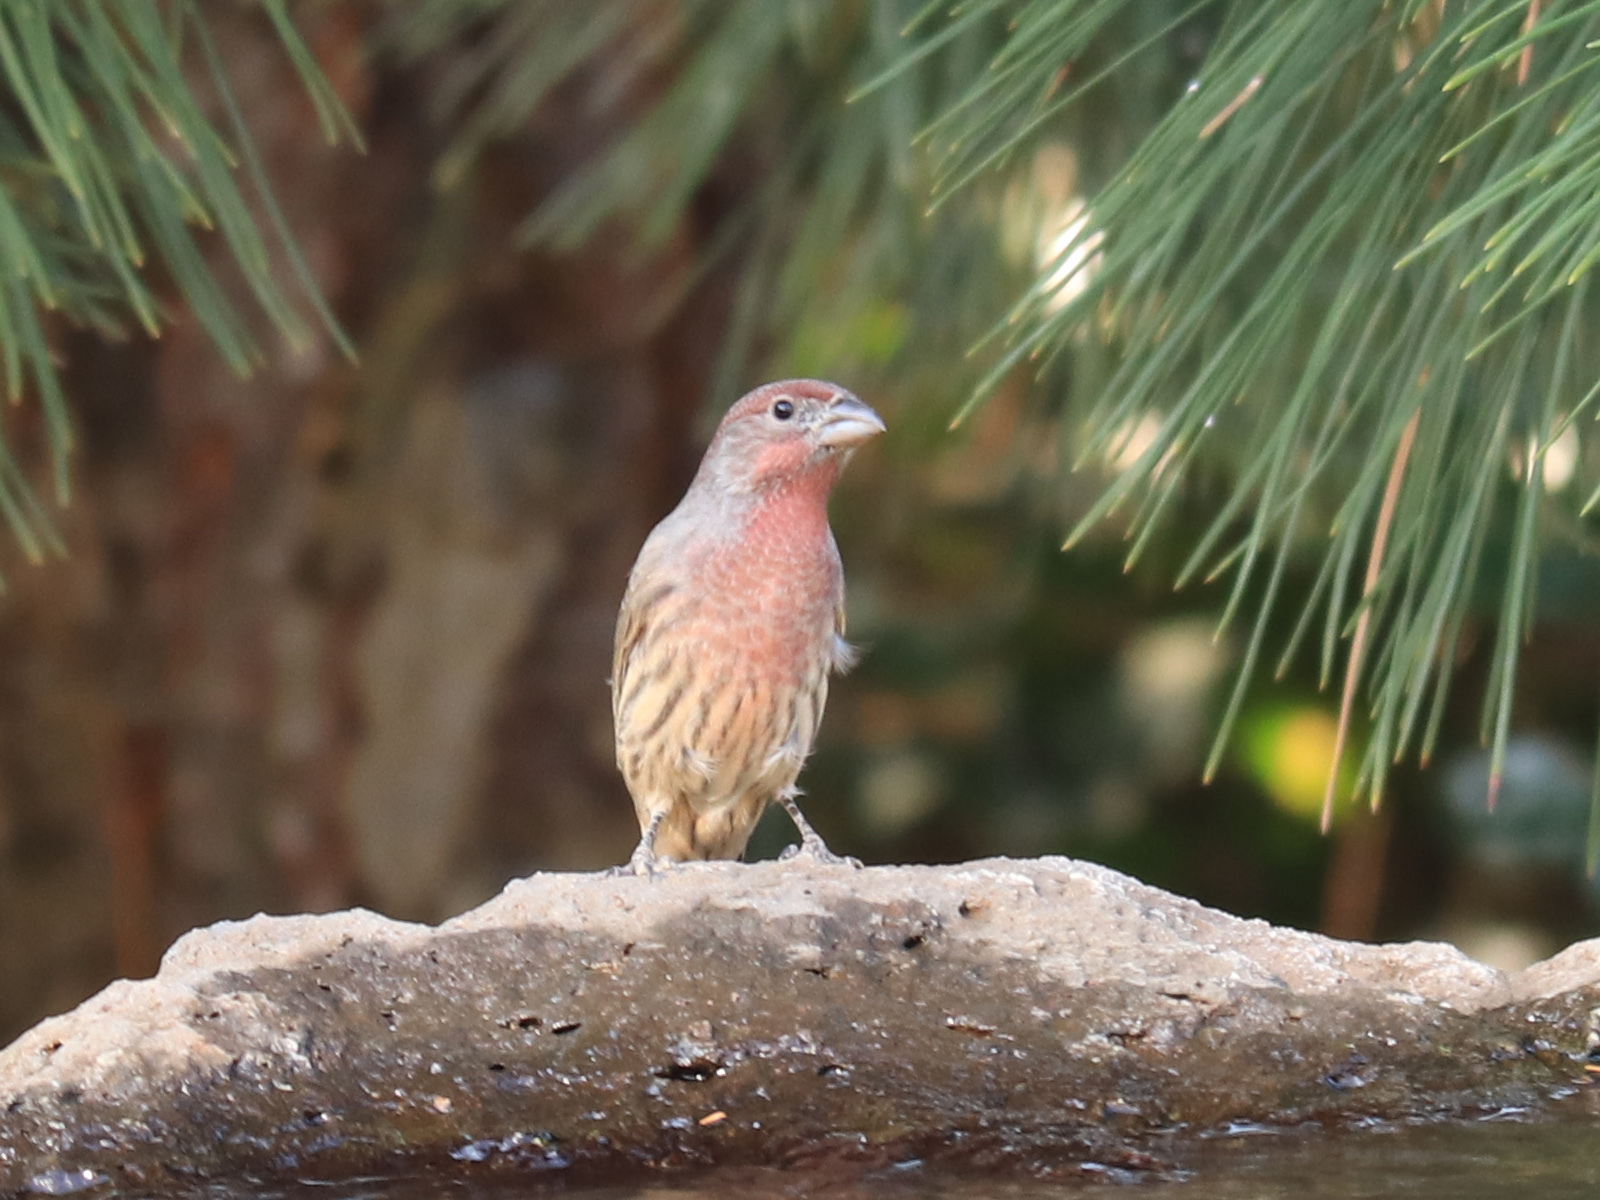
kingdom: Animalia
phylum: Chordata
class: Aves
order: Passeriformes
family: Fringillidae
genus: Haemorhous
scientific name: Haemorhous mexicanus
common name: House finch
